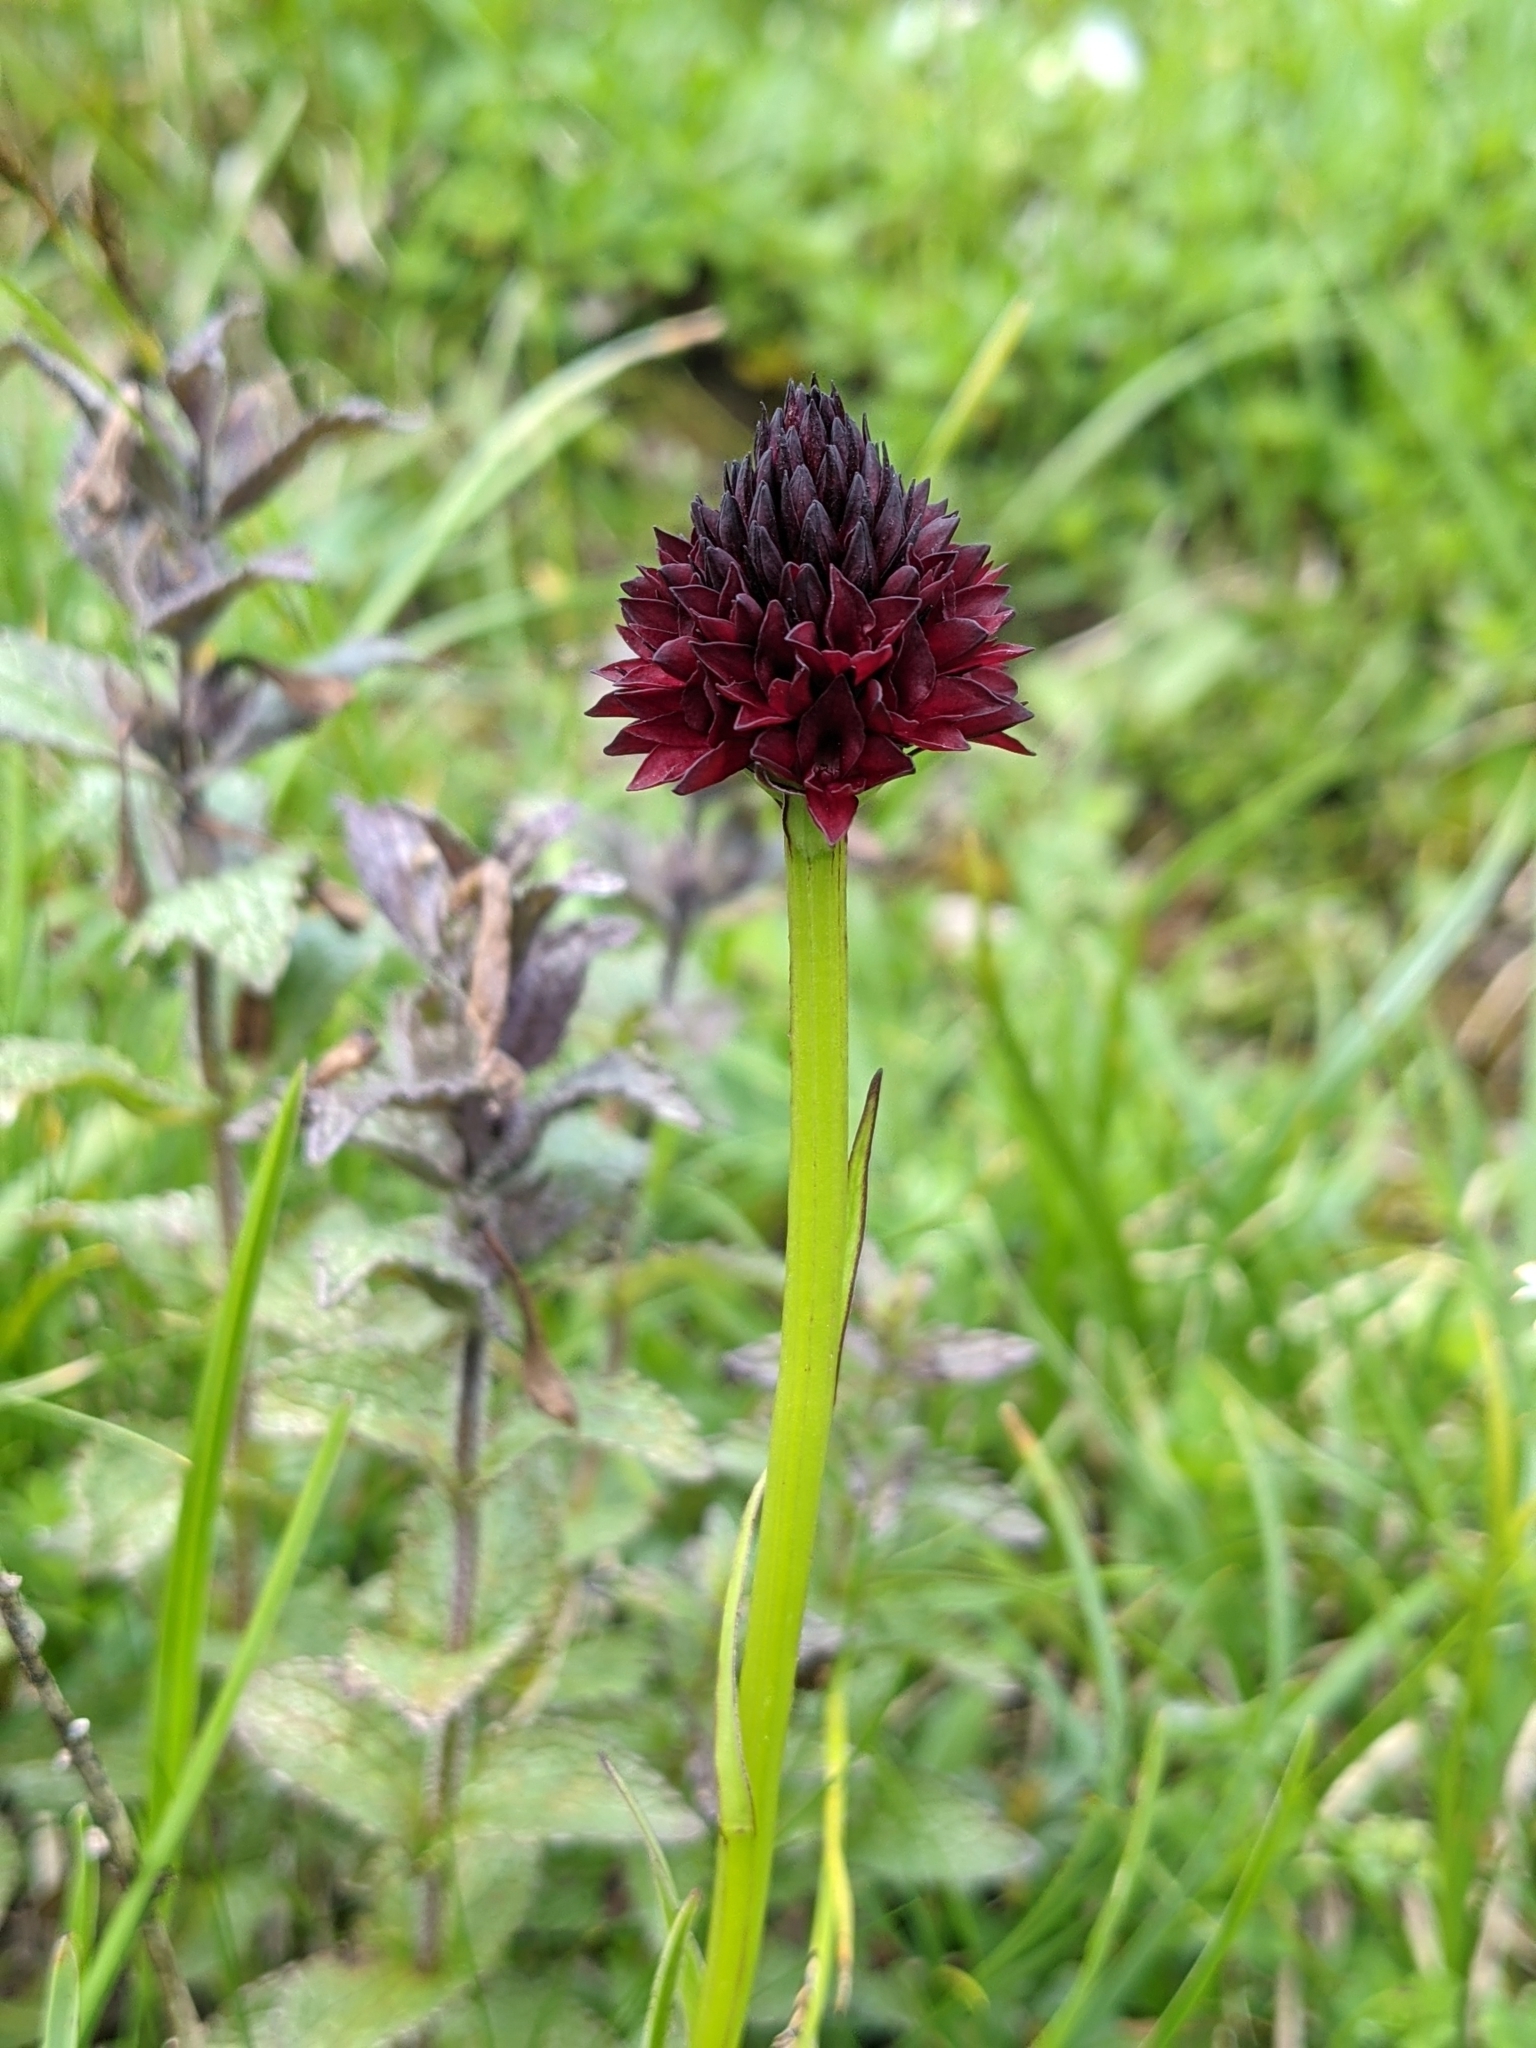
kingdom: Plantae
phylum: Tracheophyta
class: Liliopsida
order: Asparagales
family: Orchidaceae
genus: Gymnadenia
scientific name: Gymnadenia rhellicani
